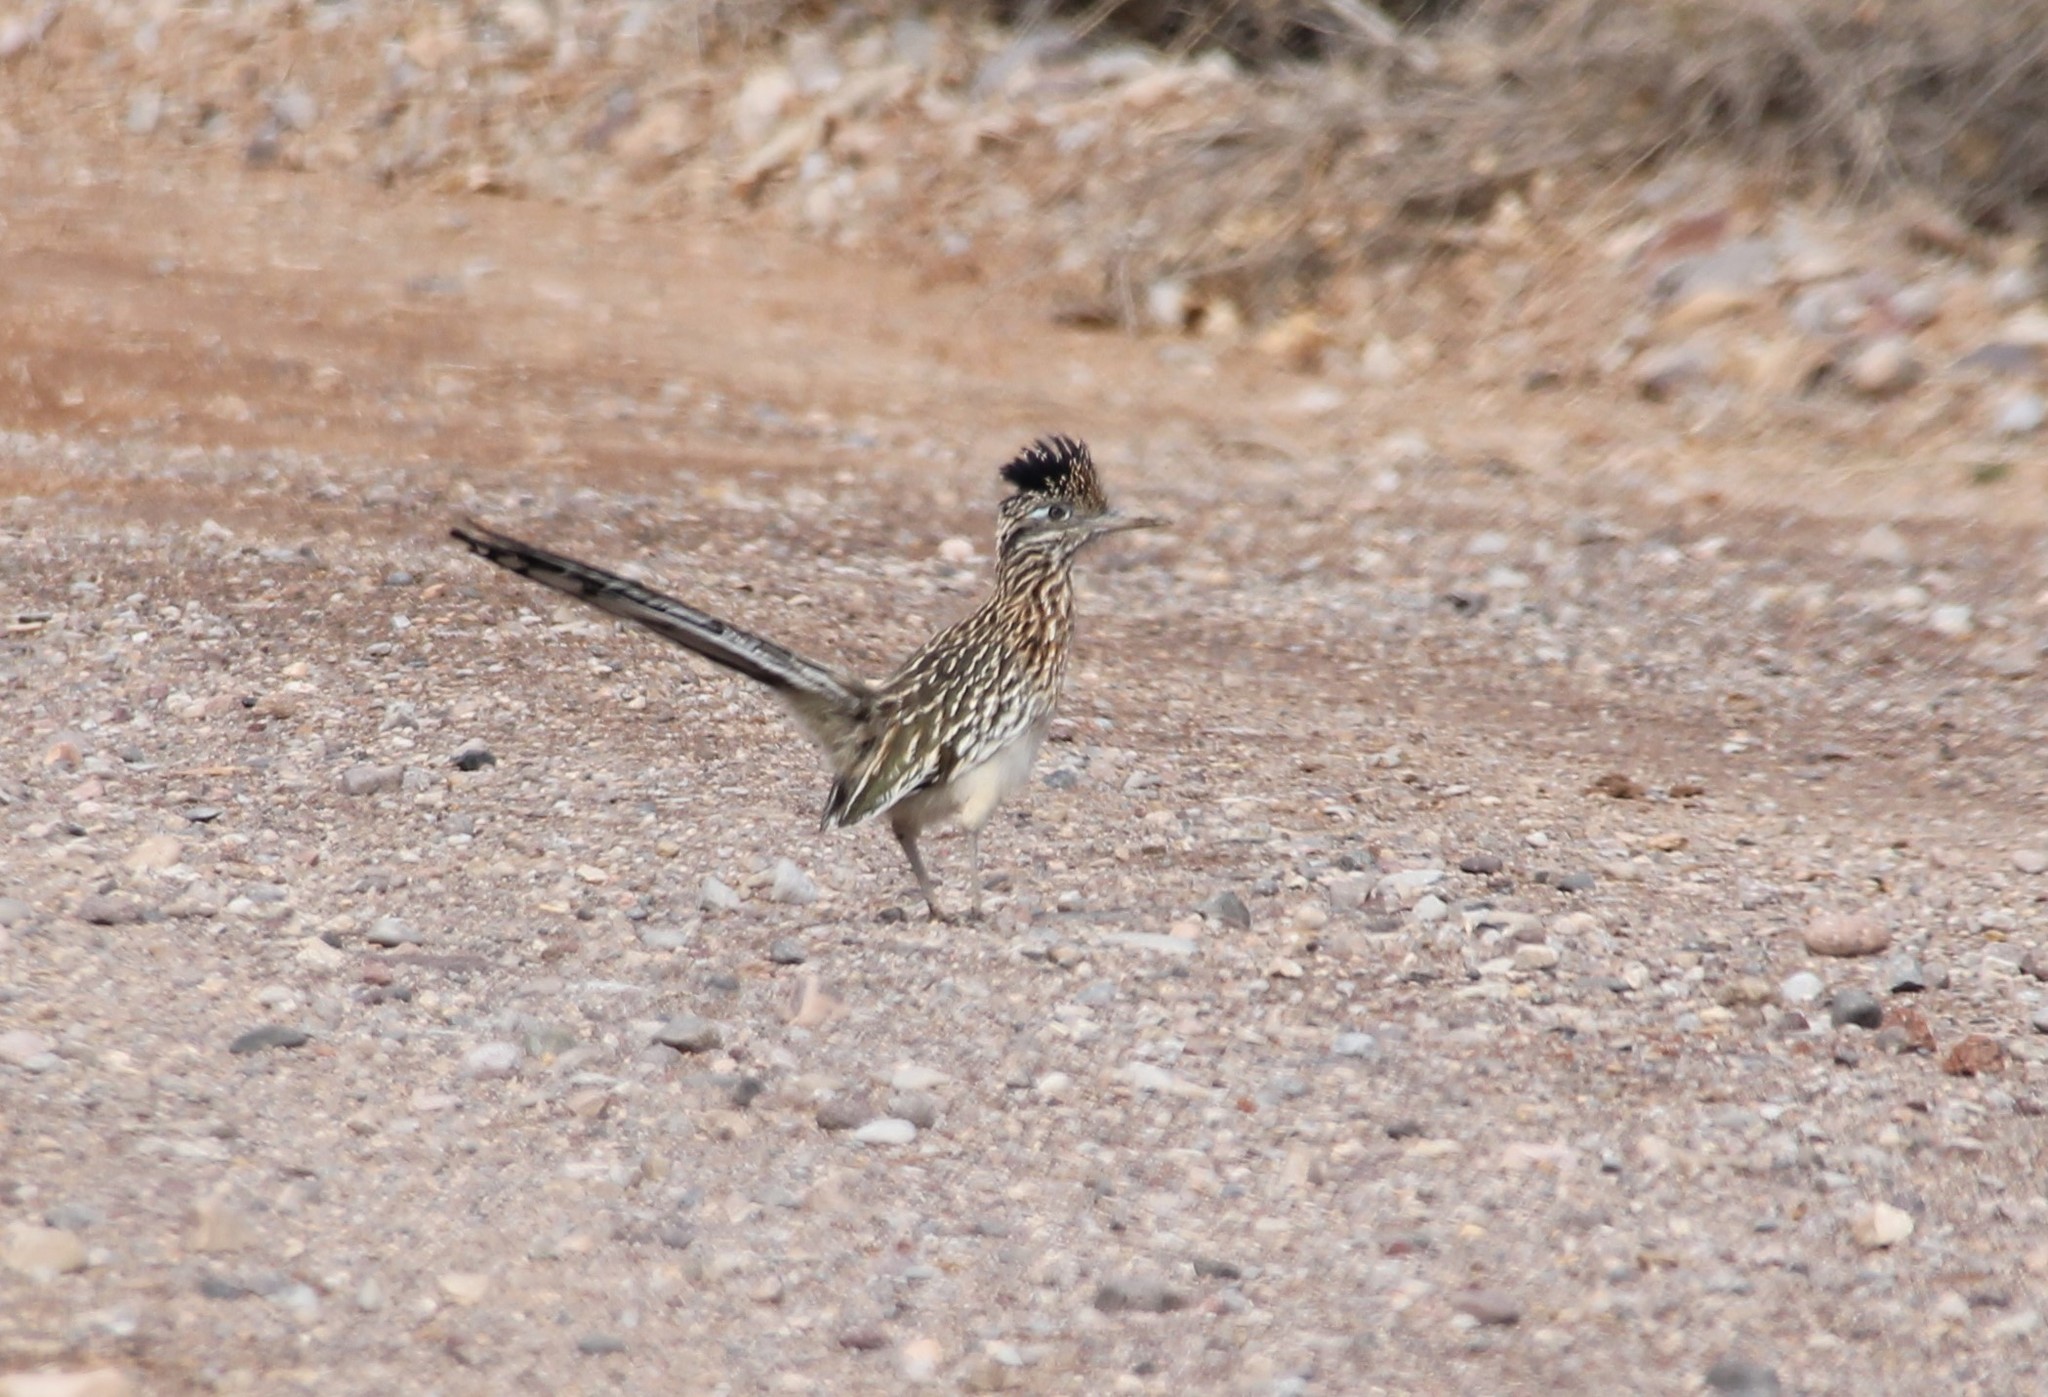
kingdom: Animalia
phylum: Chordata
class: Aves
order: Cuculiformes
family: Cuculidae
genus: Geococcyx
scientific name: Geococcyx californianus
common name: Greater roadrunner
